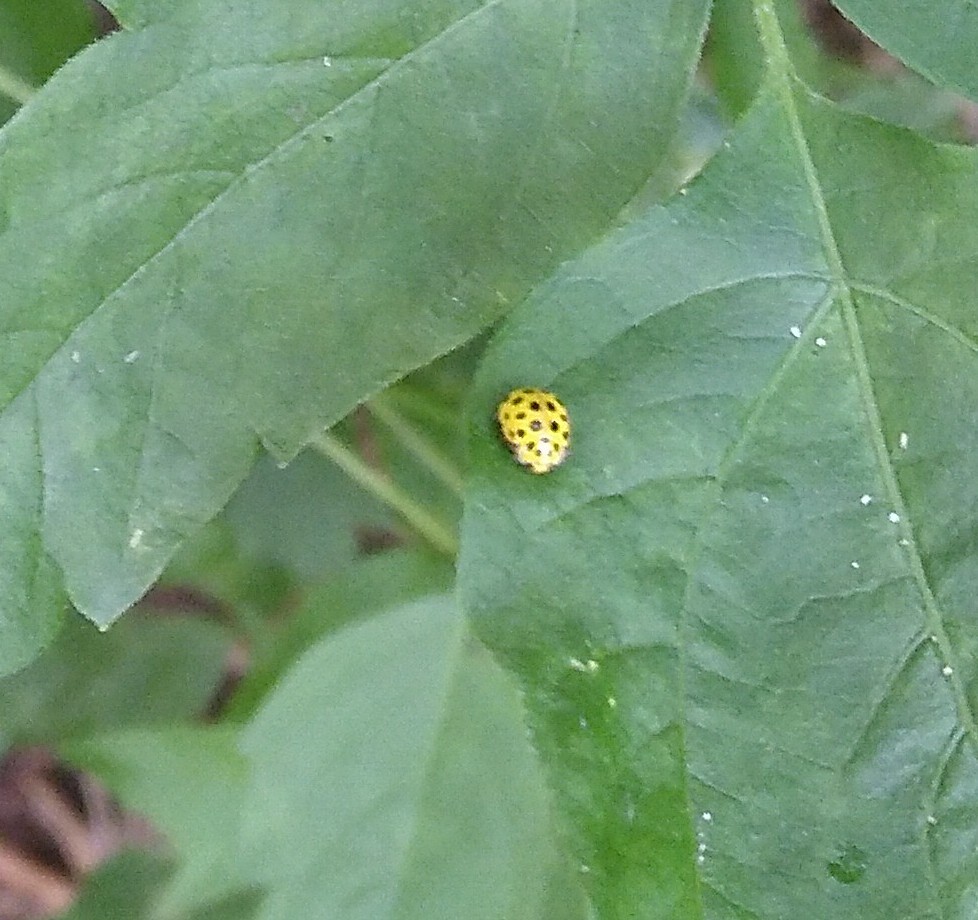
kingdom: Animalia
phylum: Arthropoda
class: Insecta
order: Coleoptera
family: Coccinellidae
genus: Psyllobora
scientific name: Psyllobora vigintiduopunctata
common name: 22-spot ladybird
